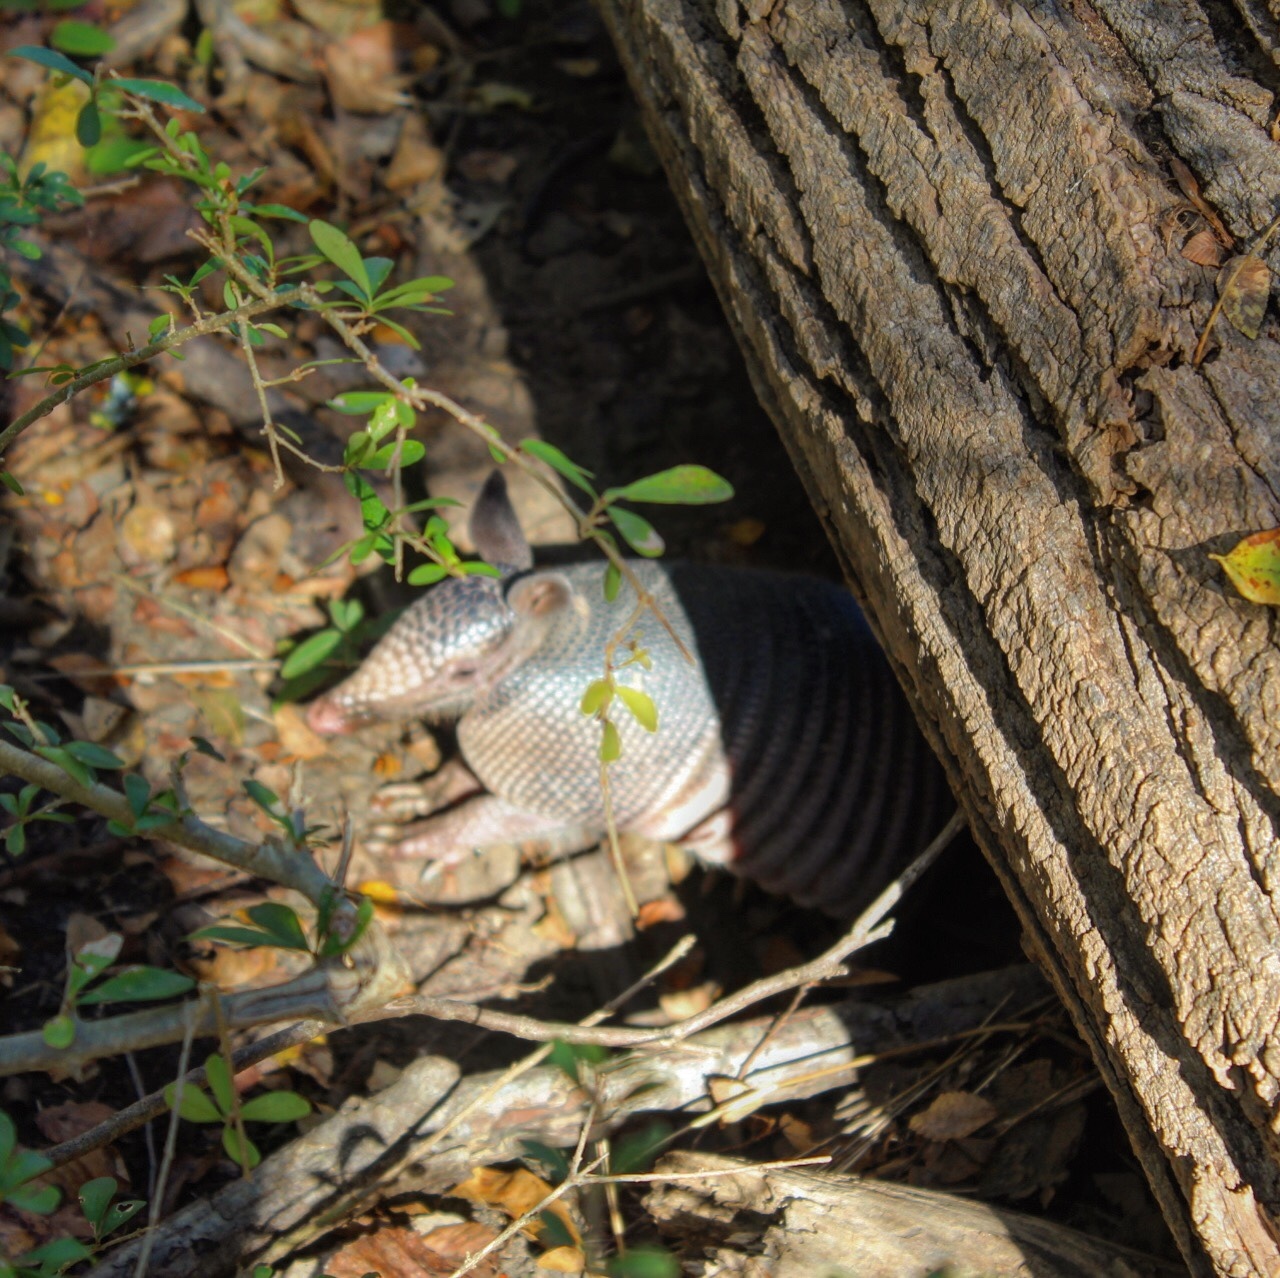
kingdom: Animalia
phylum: Chordata
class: Mammalia
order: Cingulata
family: Dasypodidae
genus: Dasypus
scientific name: Dasypus novemcinctus
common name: Nine-banded armadillo
